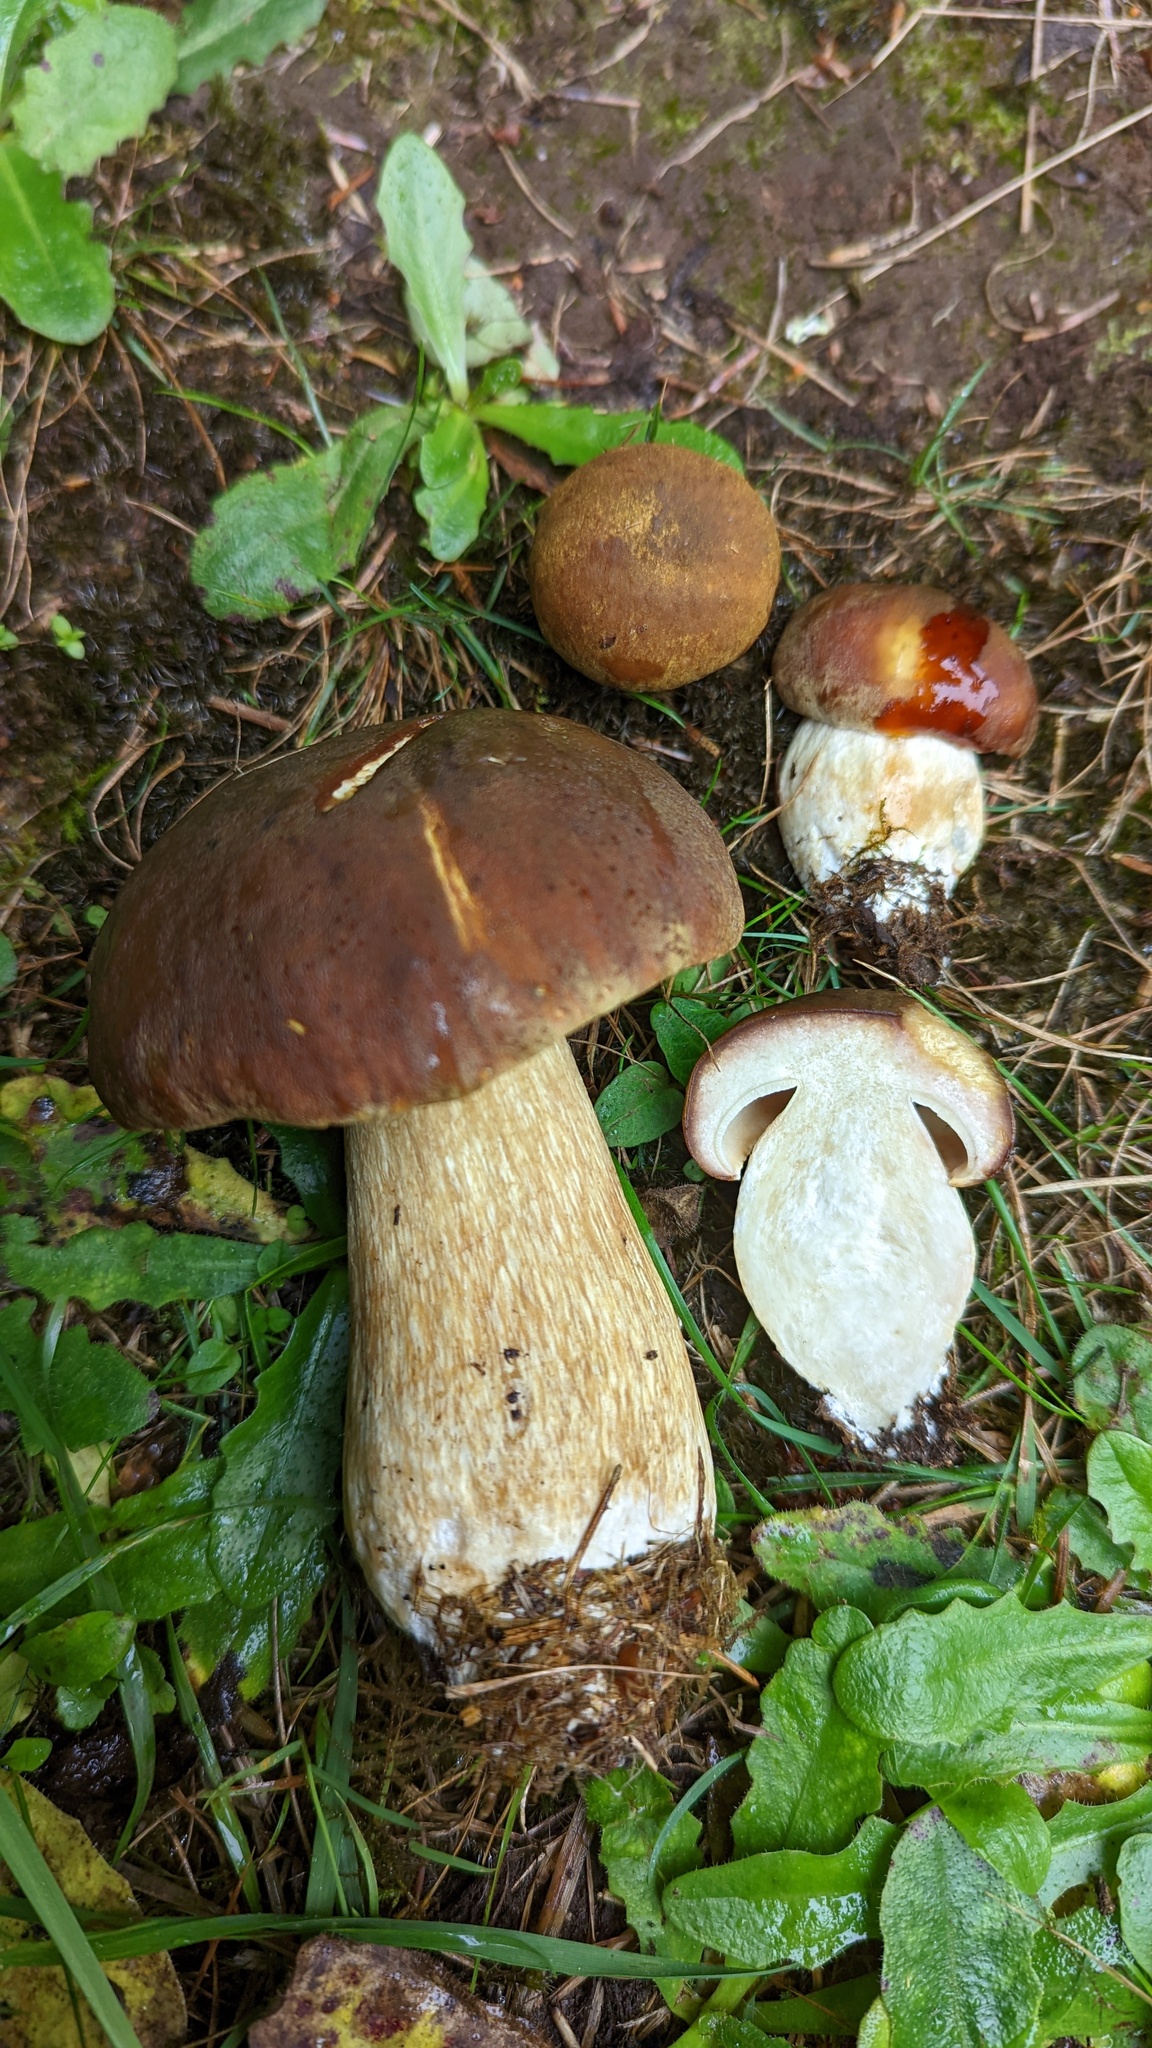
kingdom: Fungi
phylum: Basidiomycota
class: Agaricomycetes
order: Boletales
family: Boletaceae
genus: Boletus
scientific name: Boletus fibrillosus
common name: Fib king
